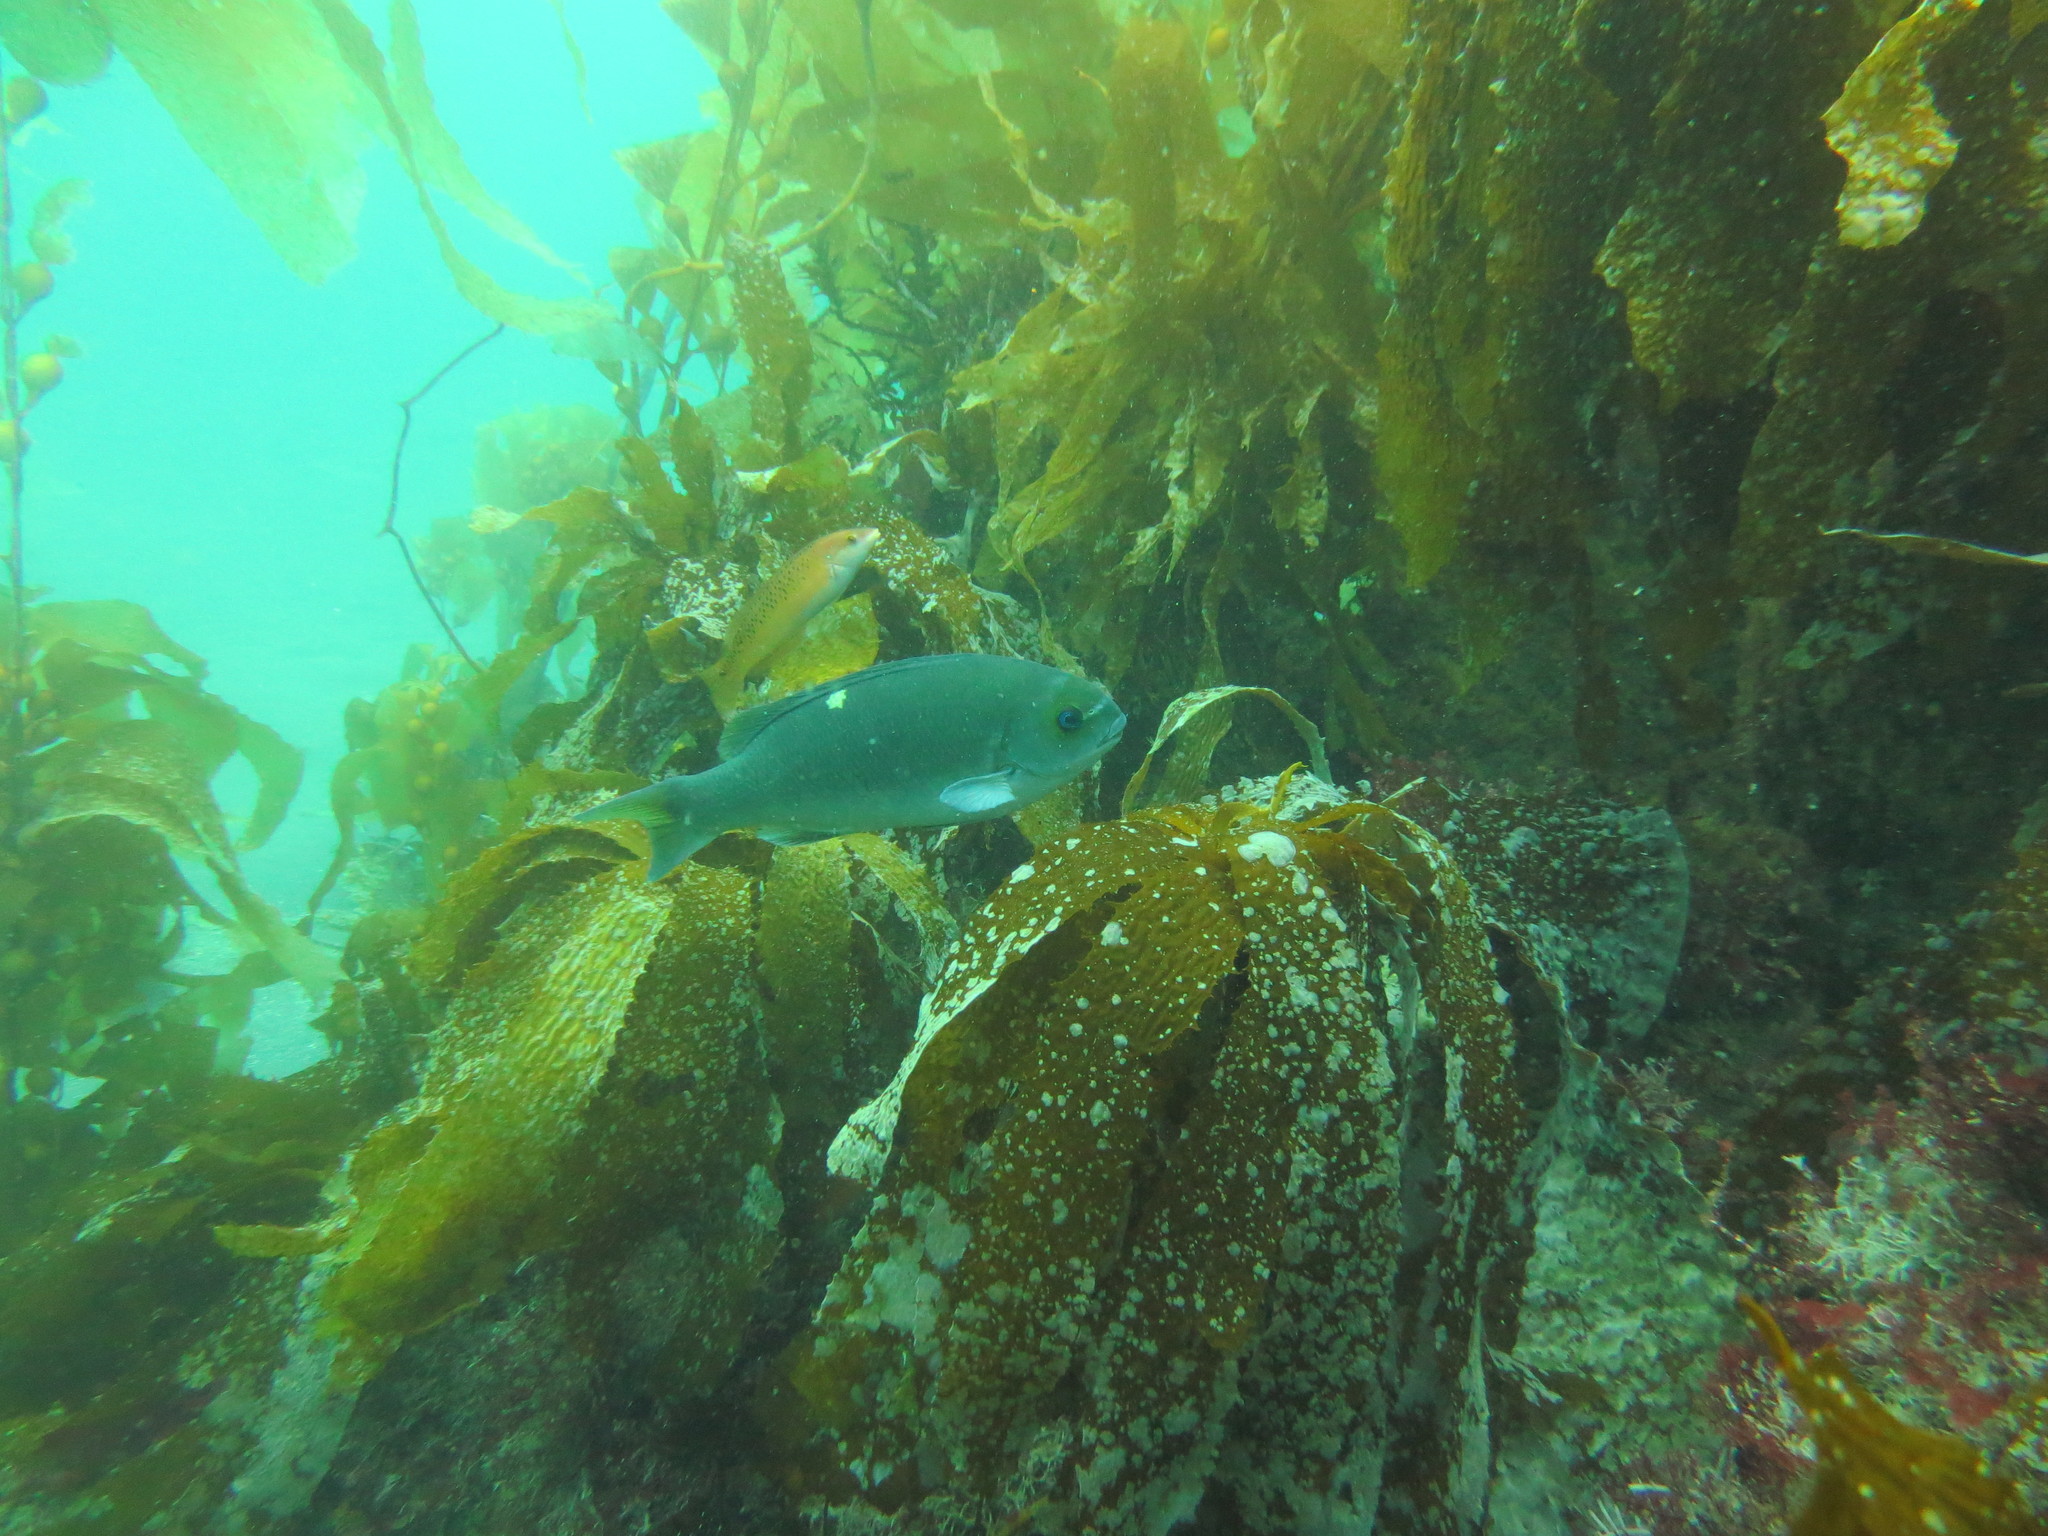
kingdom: Animalia
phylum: Chordata
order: Perciformes
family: Kyphosidae
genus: Girella
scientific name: Girella nigricans
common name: Opaleye
